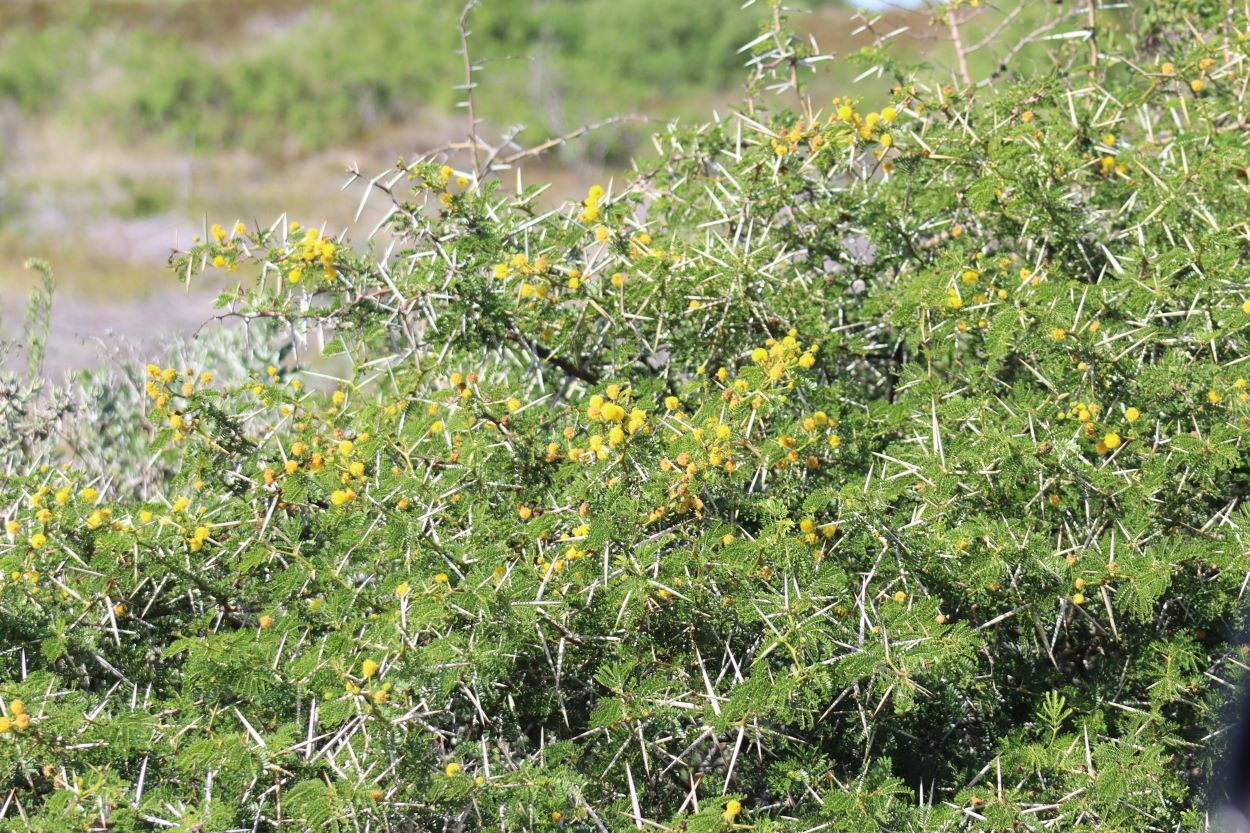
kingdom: Plantae
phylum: Tracheophyta
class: Magnoliopsida
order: Fabales
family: Fabaceae
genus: Vachellia
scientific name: Vachellia karroo
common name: Sweet thorn
